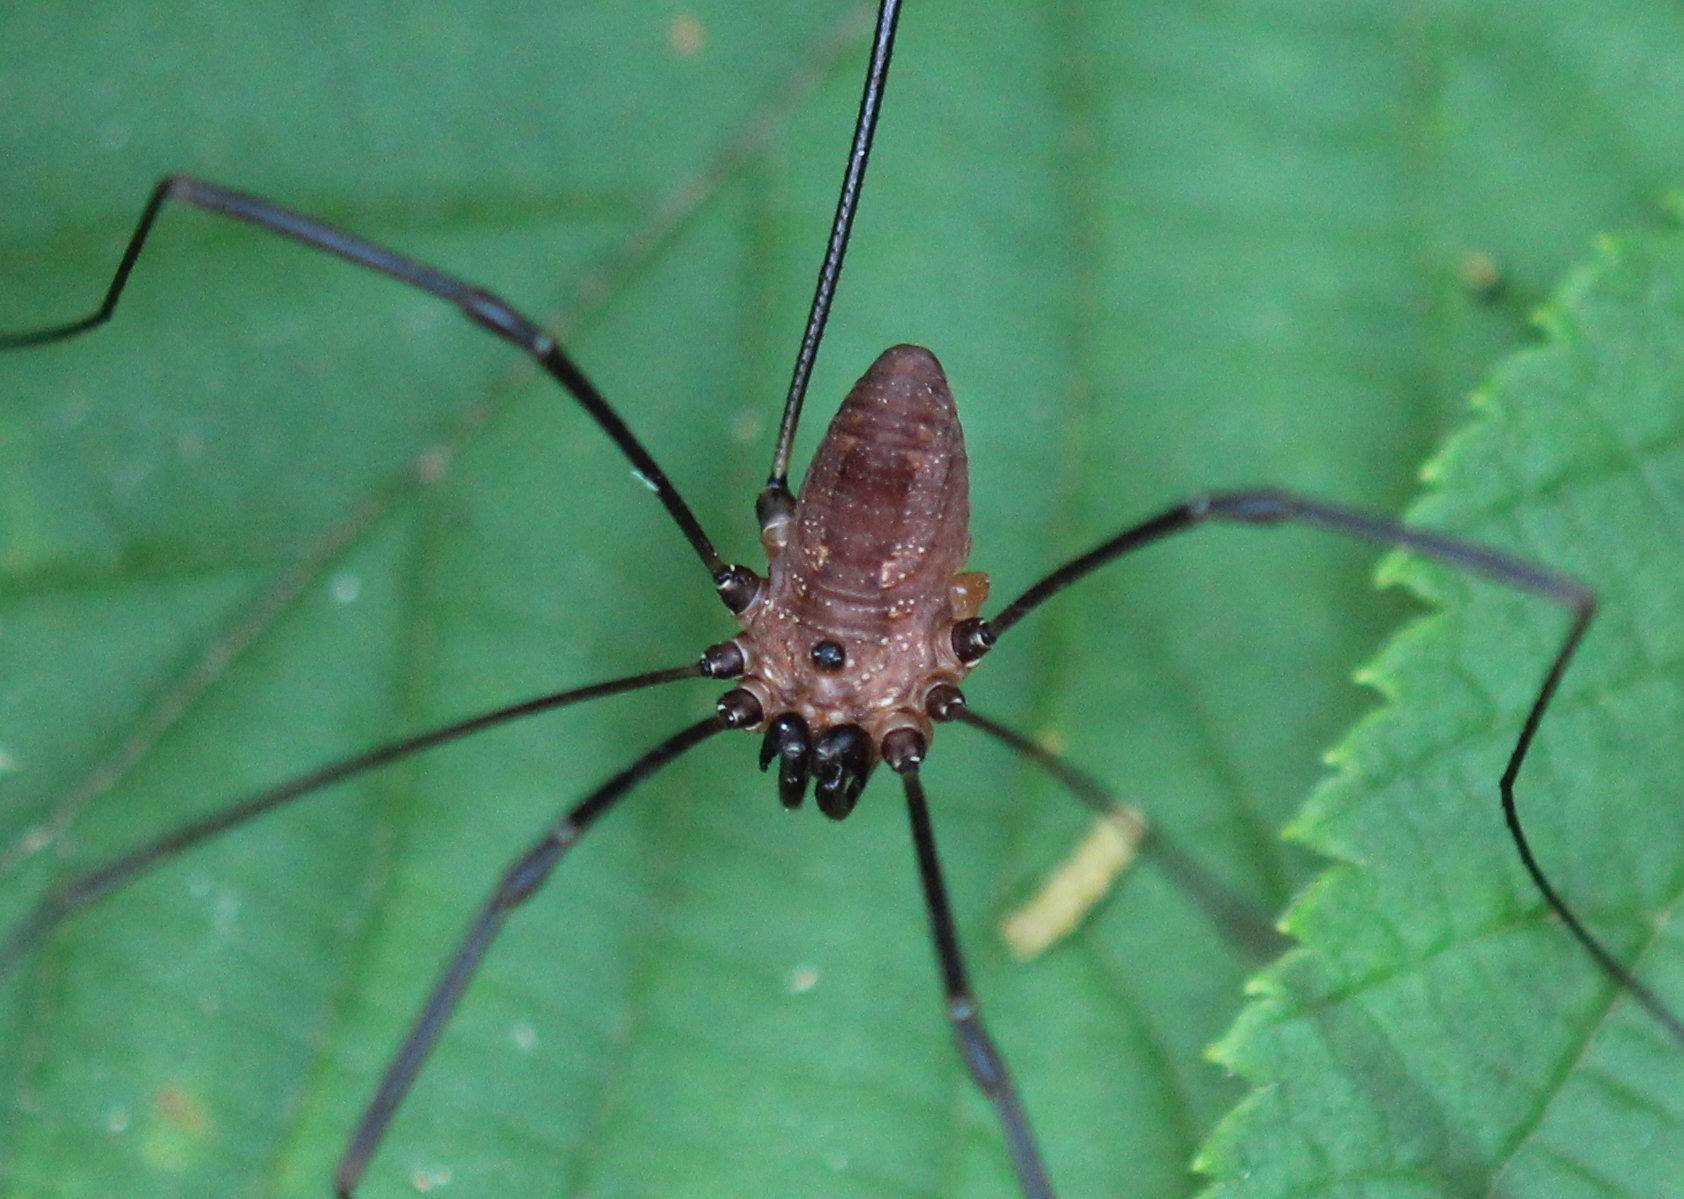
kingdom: Animalia
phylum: Arthropoda
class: Arachnida
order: Opiliones
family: Sclerosomatidae
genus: Leiobunum
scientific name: Leiobunum calcar
